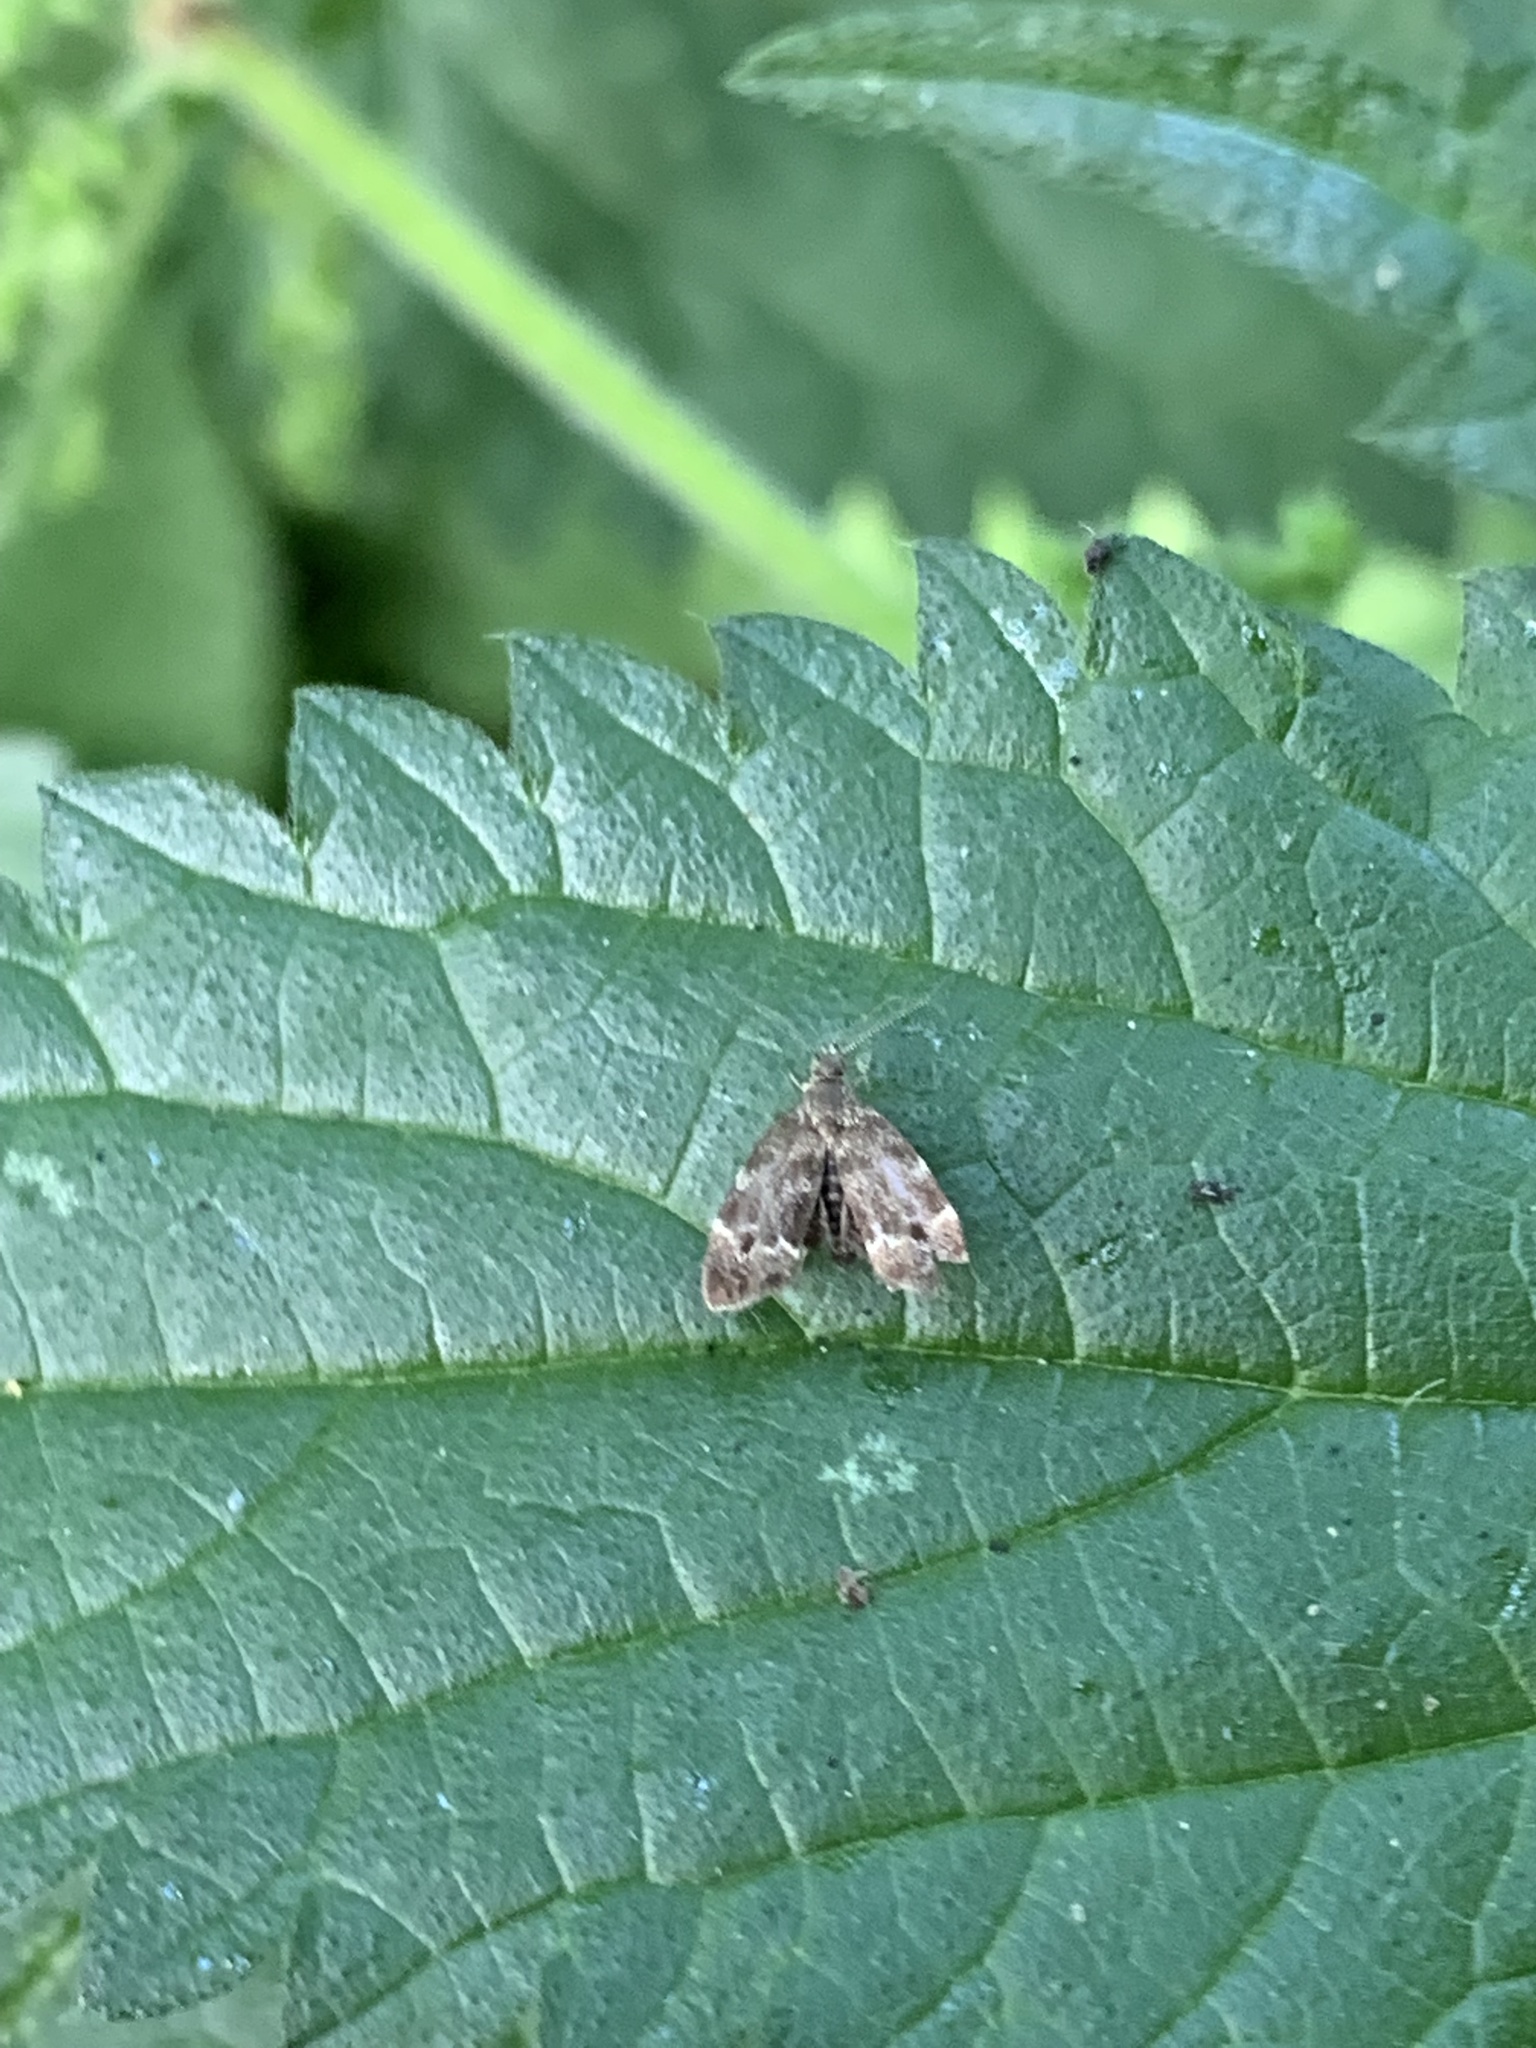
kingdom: Animalia
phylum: Arthropoda
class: Insecta
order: Lepidoptera
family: Choreutidae
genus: Anthophila
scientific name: Anthophila fabriciana
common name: Nettle-tap
